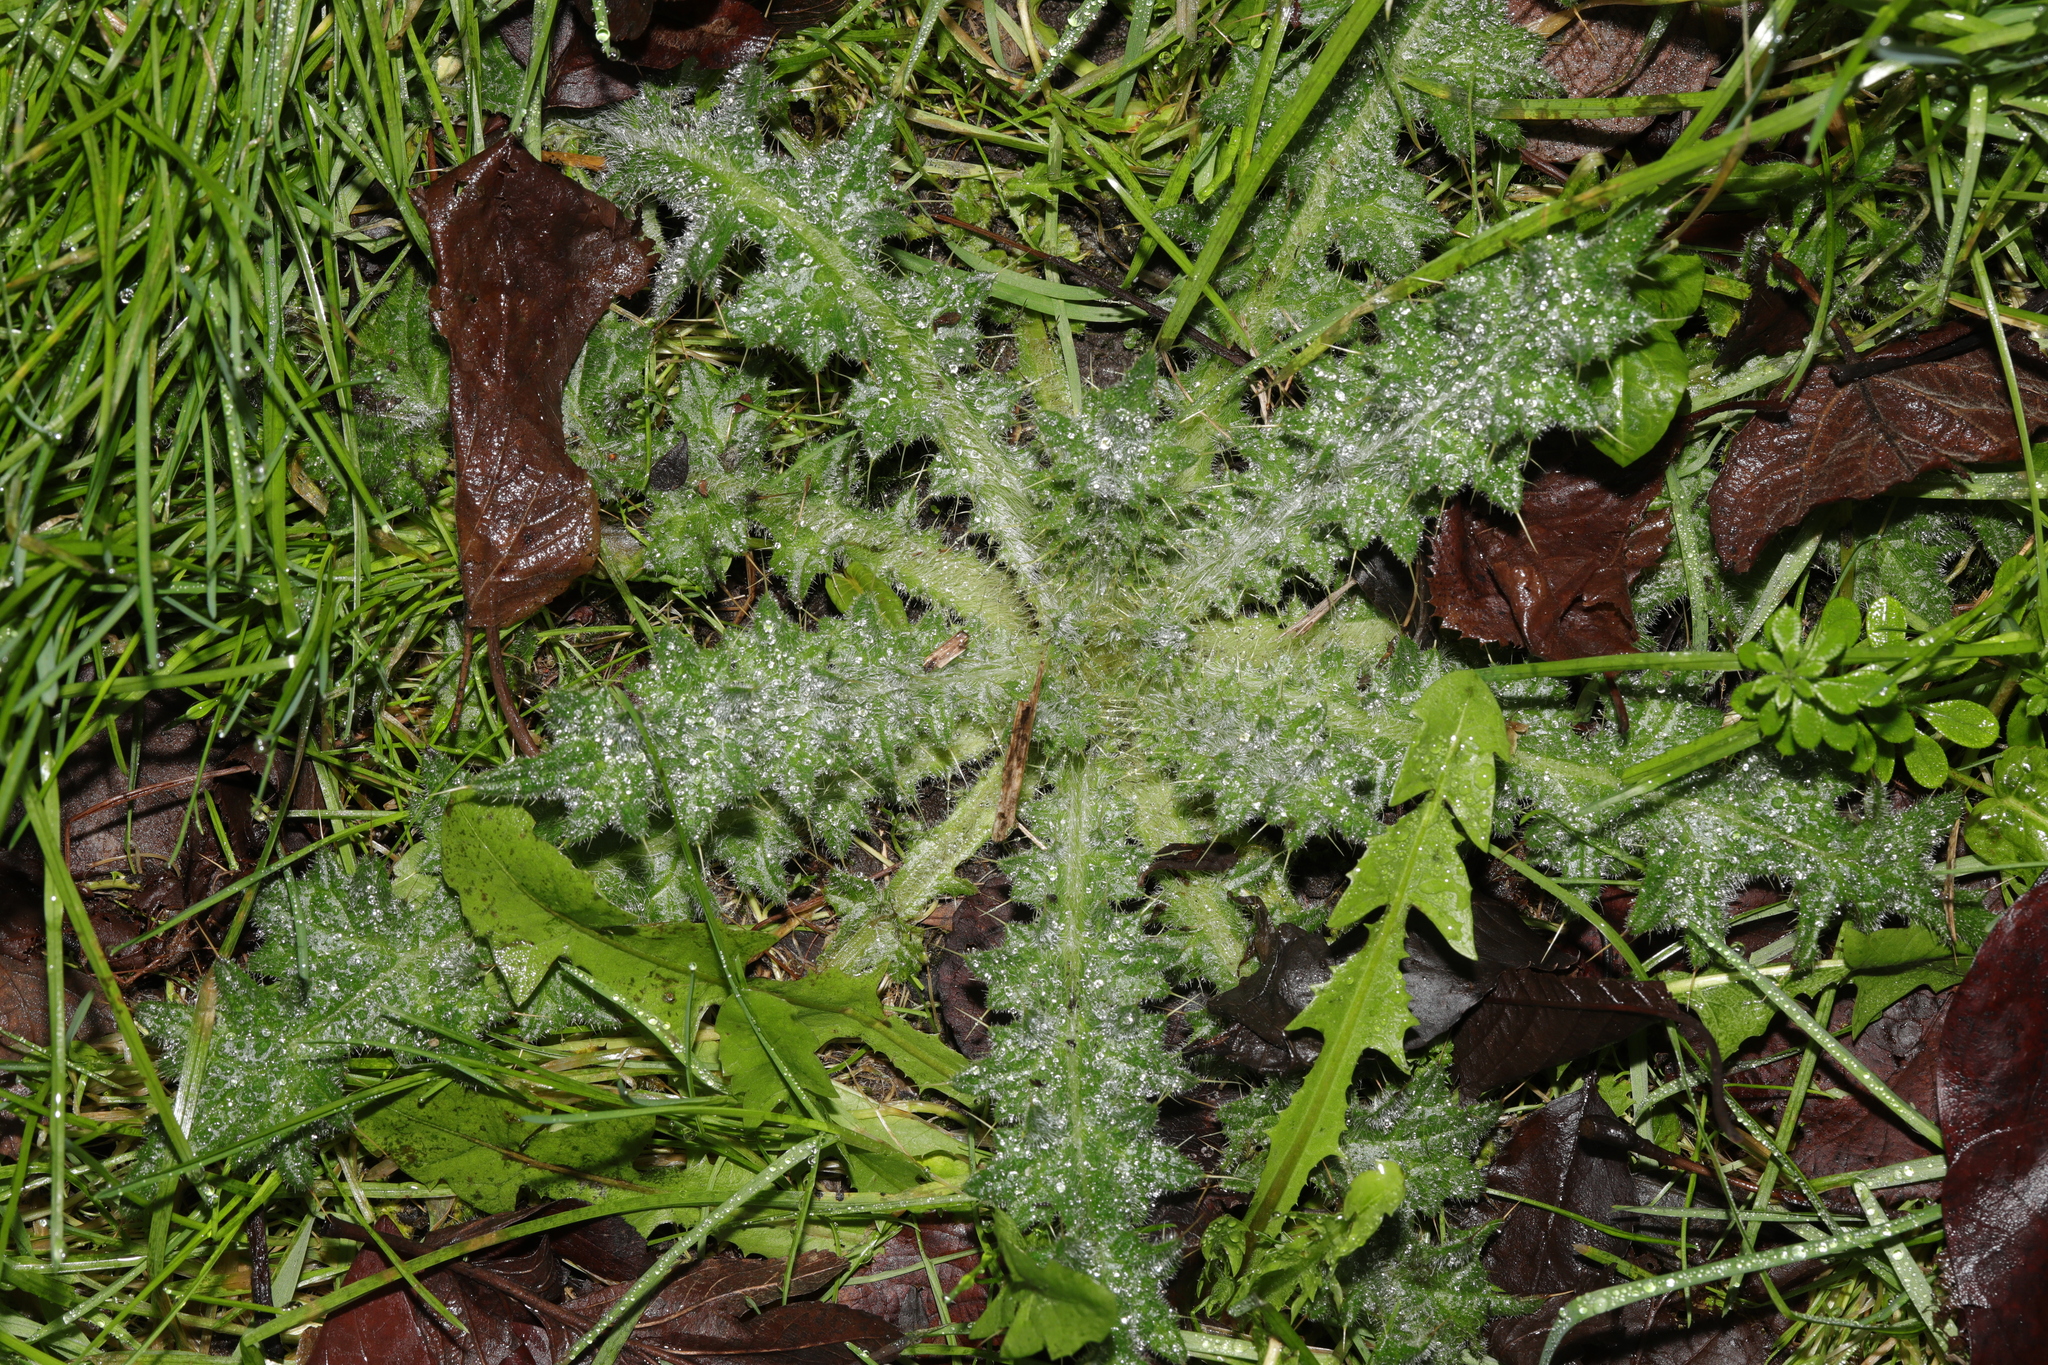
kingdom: Plantae
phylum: Tracheophyta
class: Magnoliopsida
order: Asterales
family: Asteraceae
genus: Cirsium
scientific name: Cirsium vulgare
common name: Bull thistle
